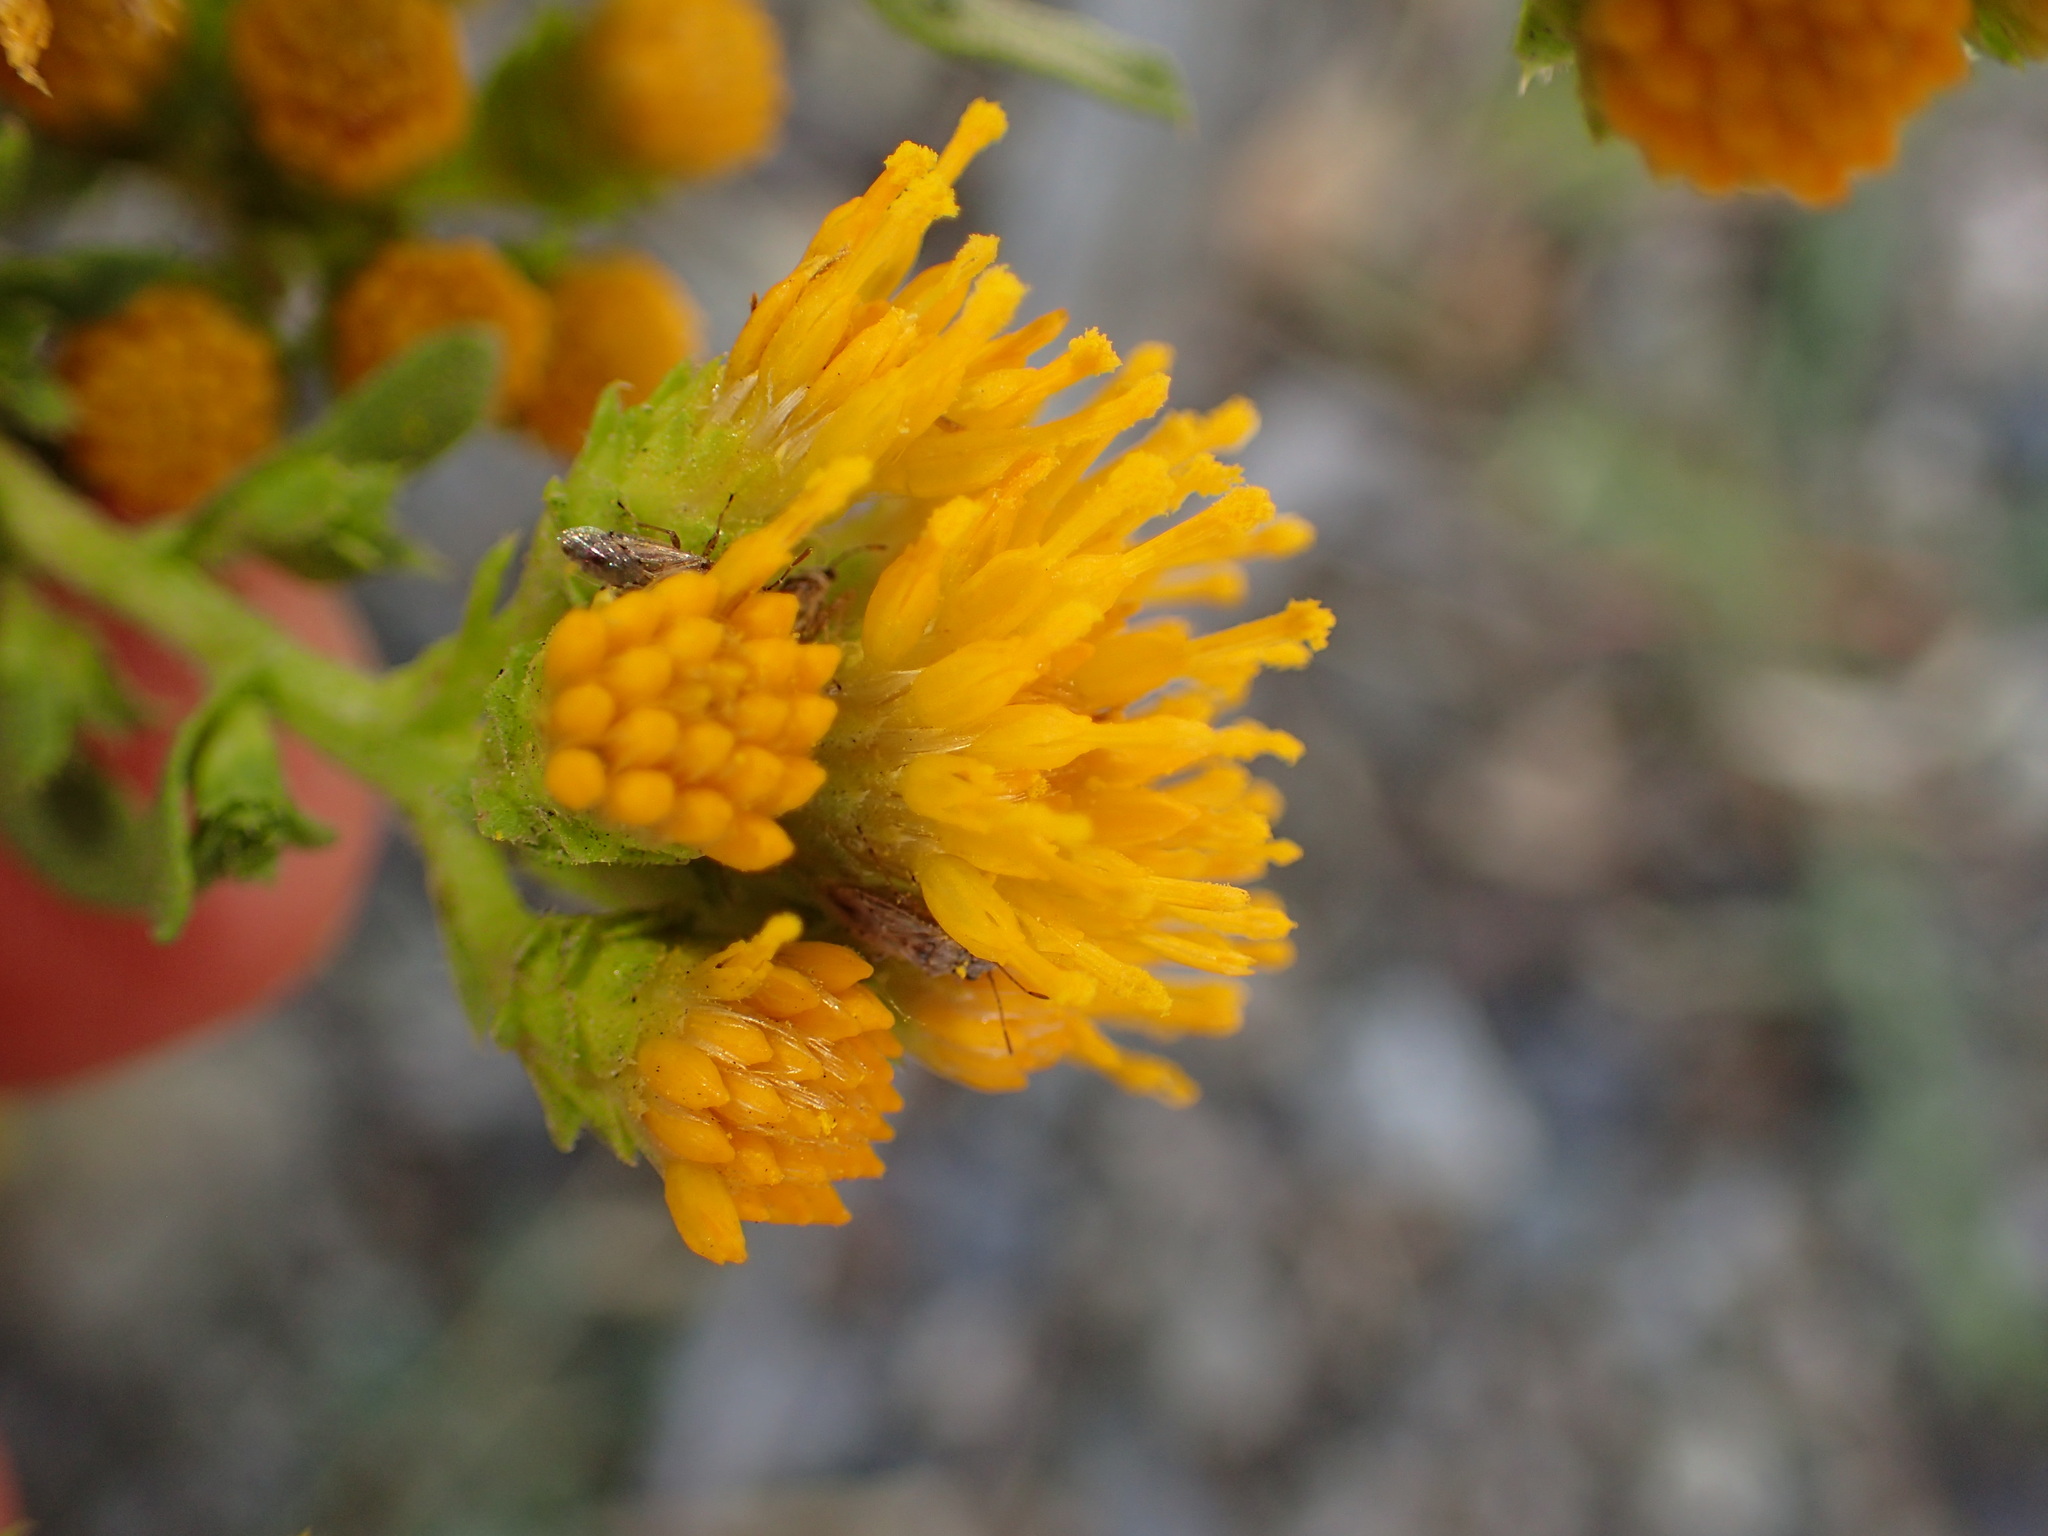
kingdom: Plantae
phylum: Tracheophyta
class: Magnoliopsida
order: Asterales
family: Asteraceae
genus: Isocoma
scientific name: Isocoma menziesii
